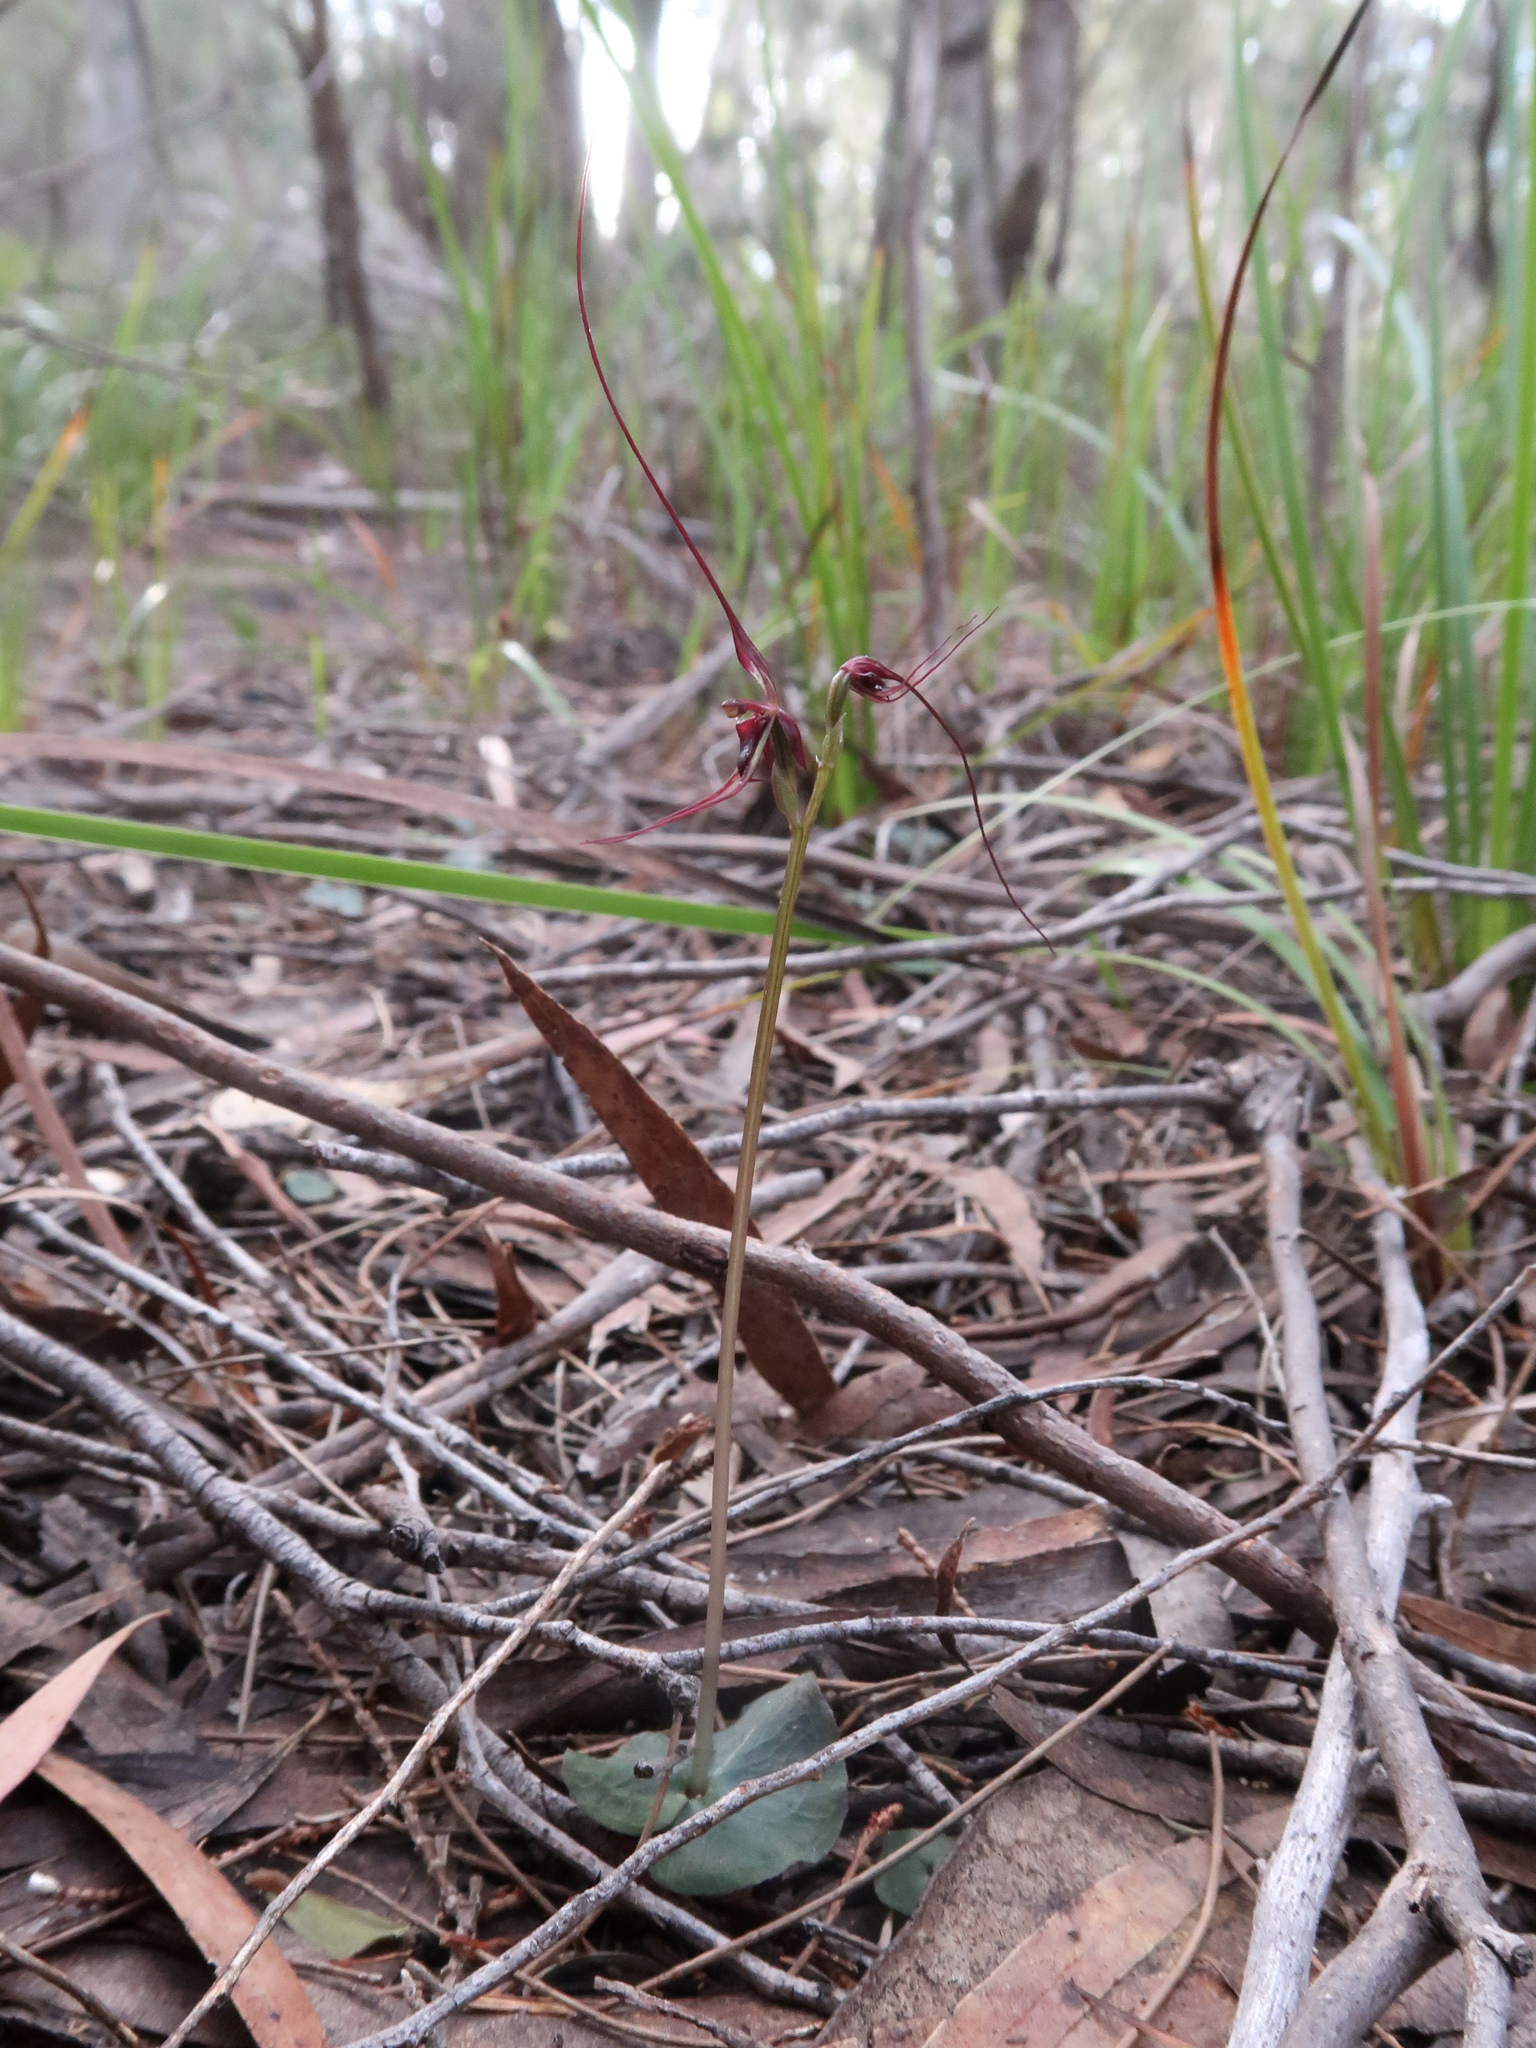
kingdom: Plantae
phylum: Tracheophyta
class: Liliopsida
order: Asparagales
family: Orchidaceae
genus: Acianthus
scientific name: Acianthus caudatus
